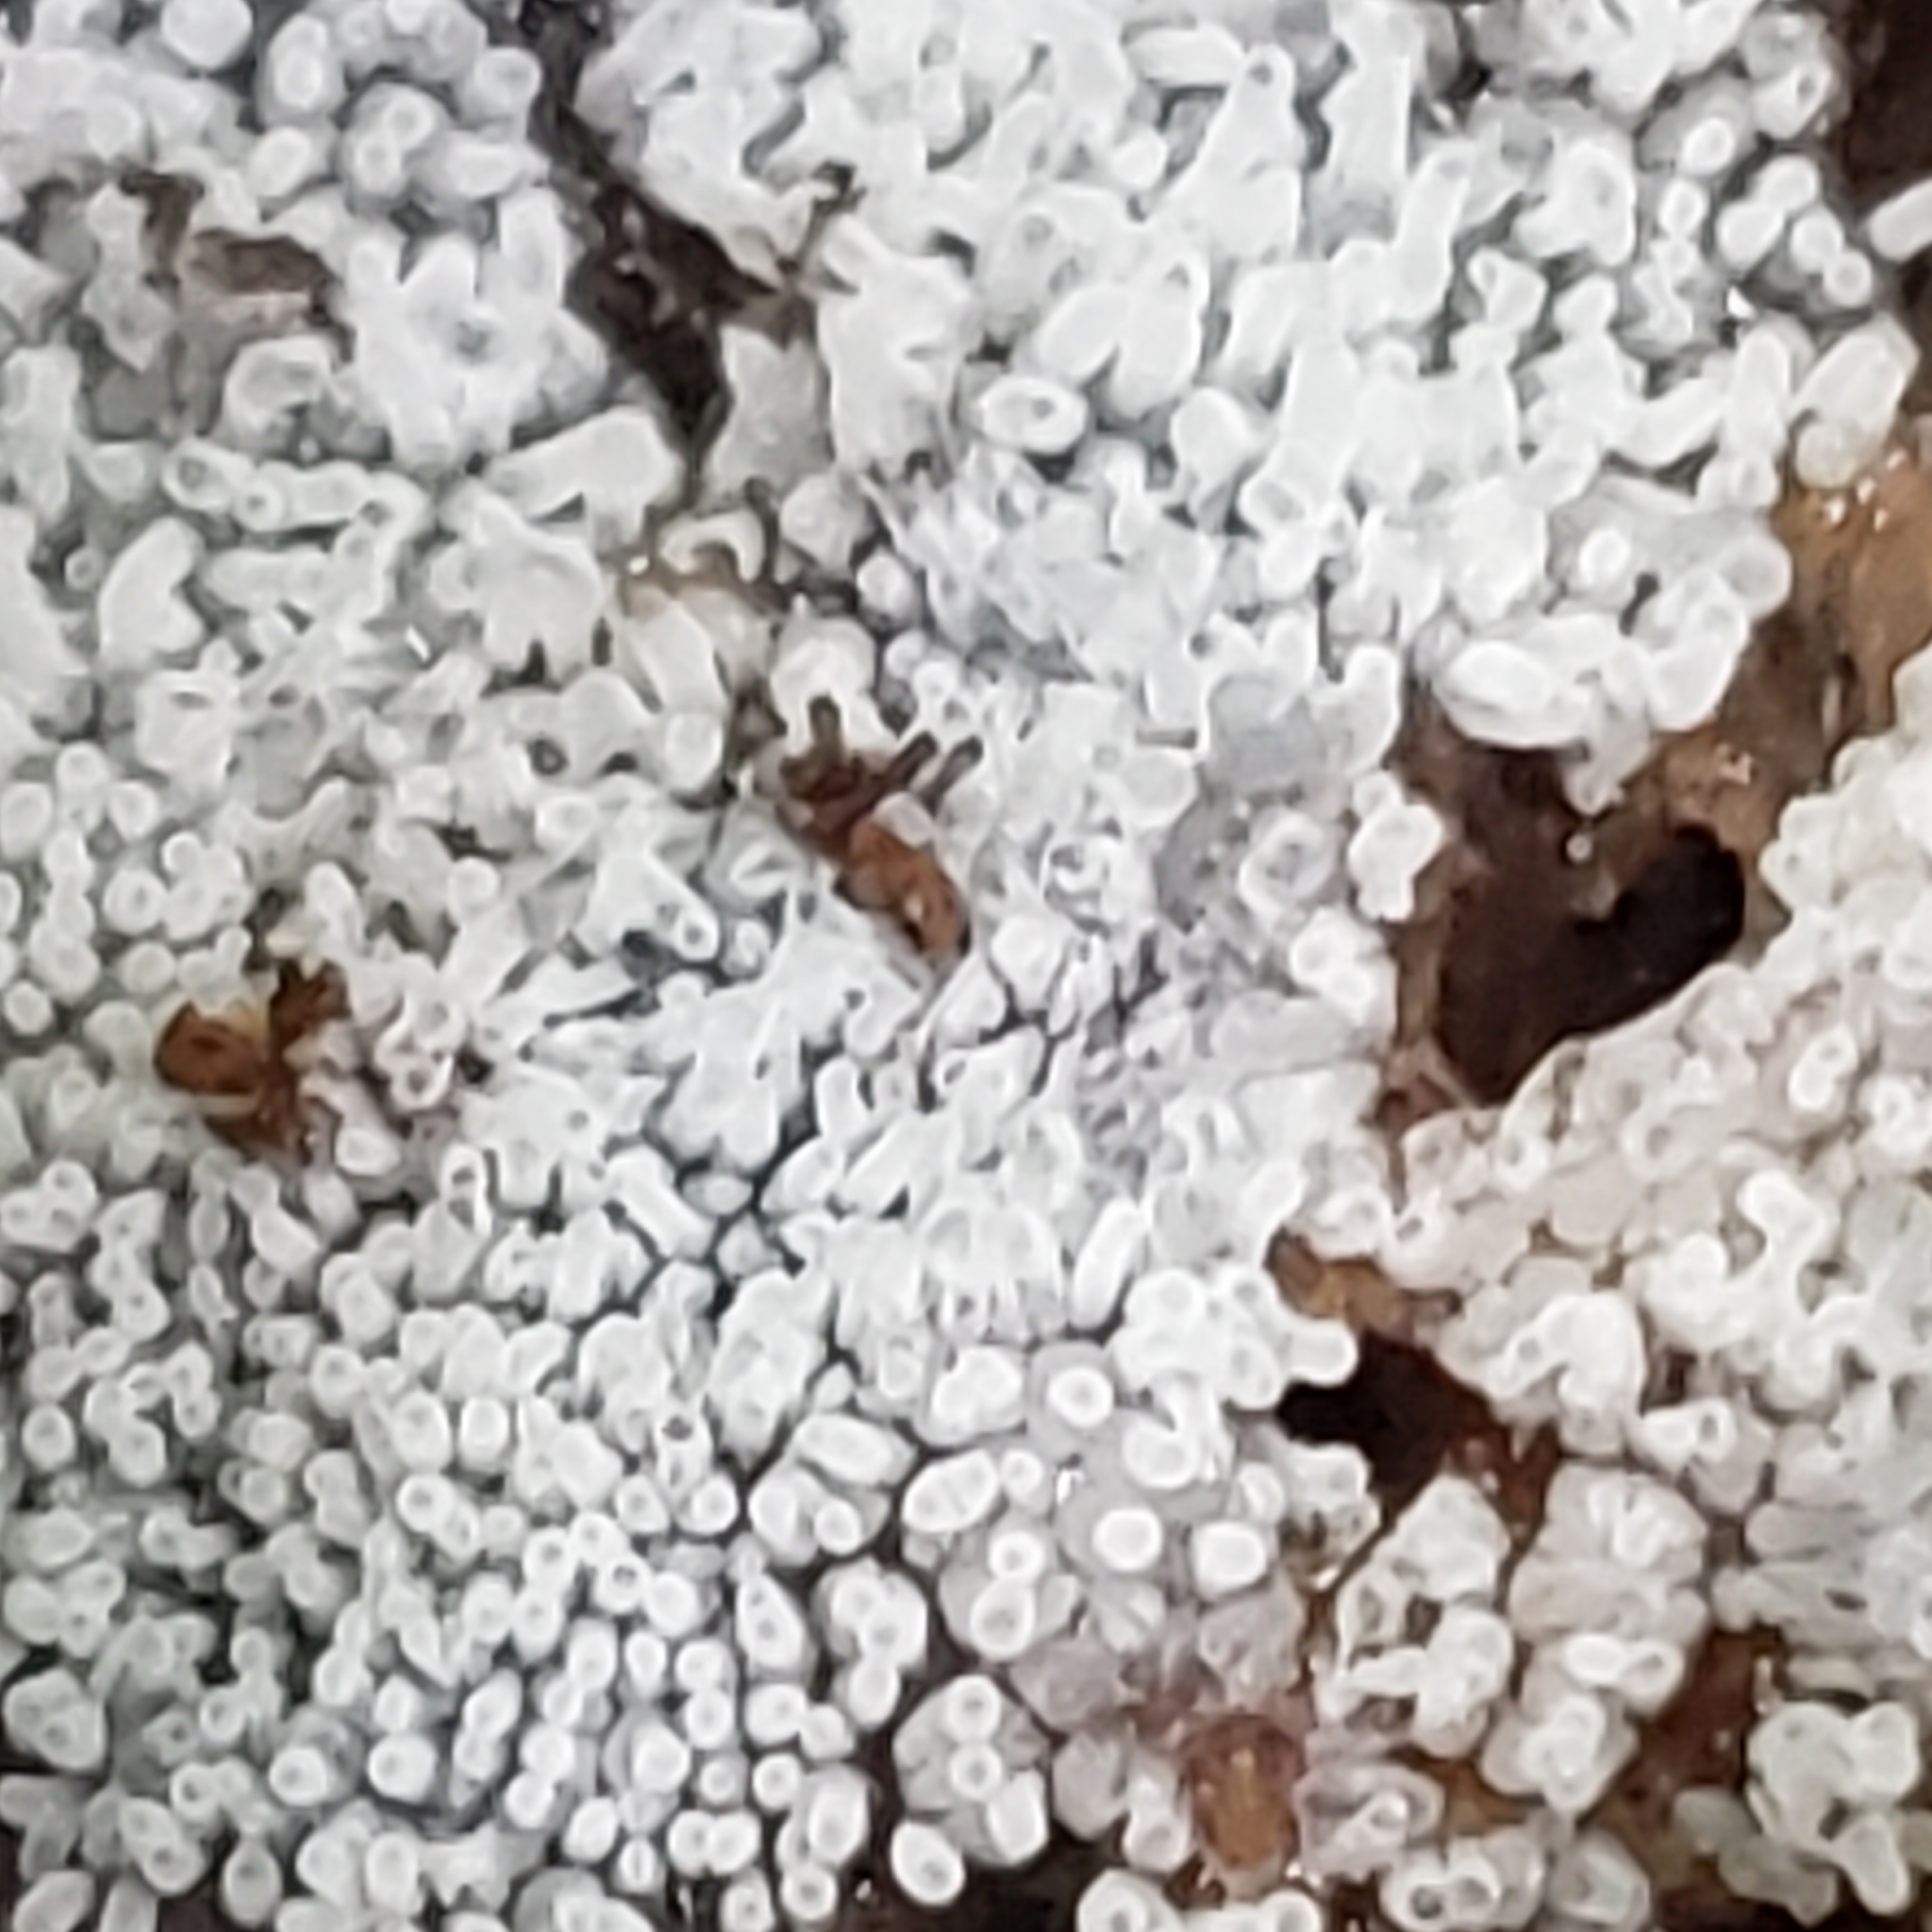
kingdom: Protozoa
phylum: Mycetozoa
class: Protosteliomycetes
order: Ceratiomyxales
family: Ceratiomyxaceae
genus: Ceratiomyxa
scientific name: Ceratiomyxa fruticulosa
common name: Honeycomb coral slime mold
